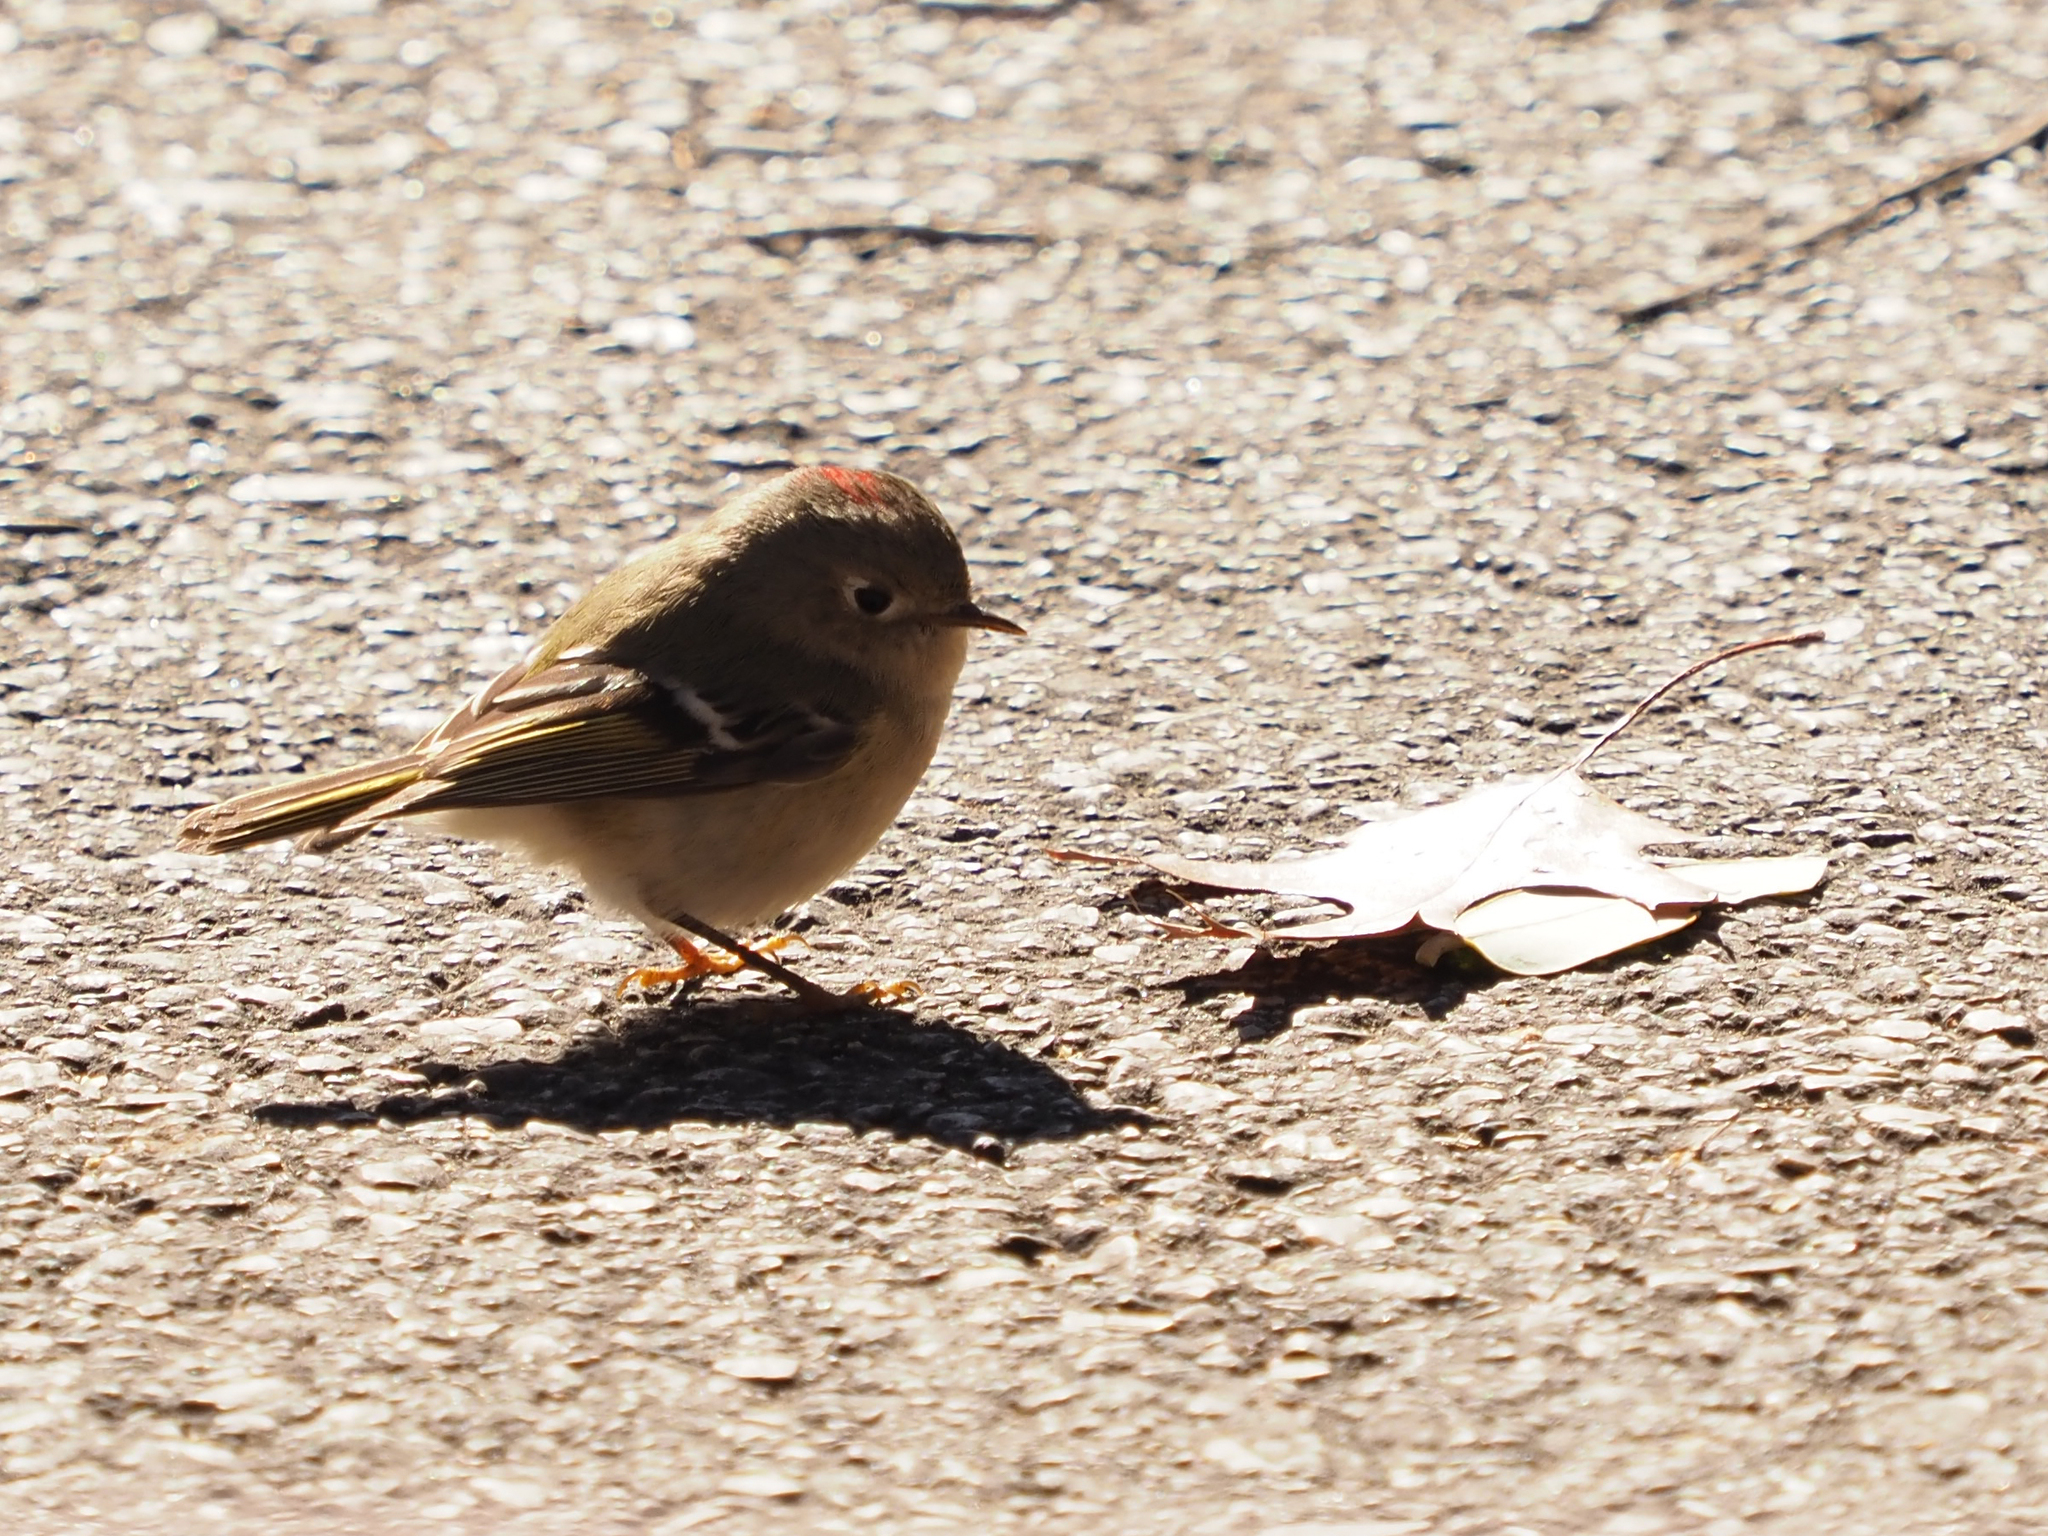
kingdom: Animalia
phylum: Chordata
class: Aves
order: Passeriformes
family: Regulidae
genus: Regulus
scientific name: Regulus calendula
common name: Ruby-crowned kinglet
